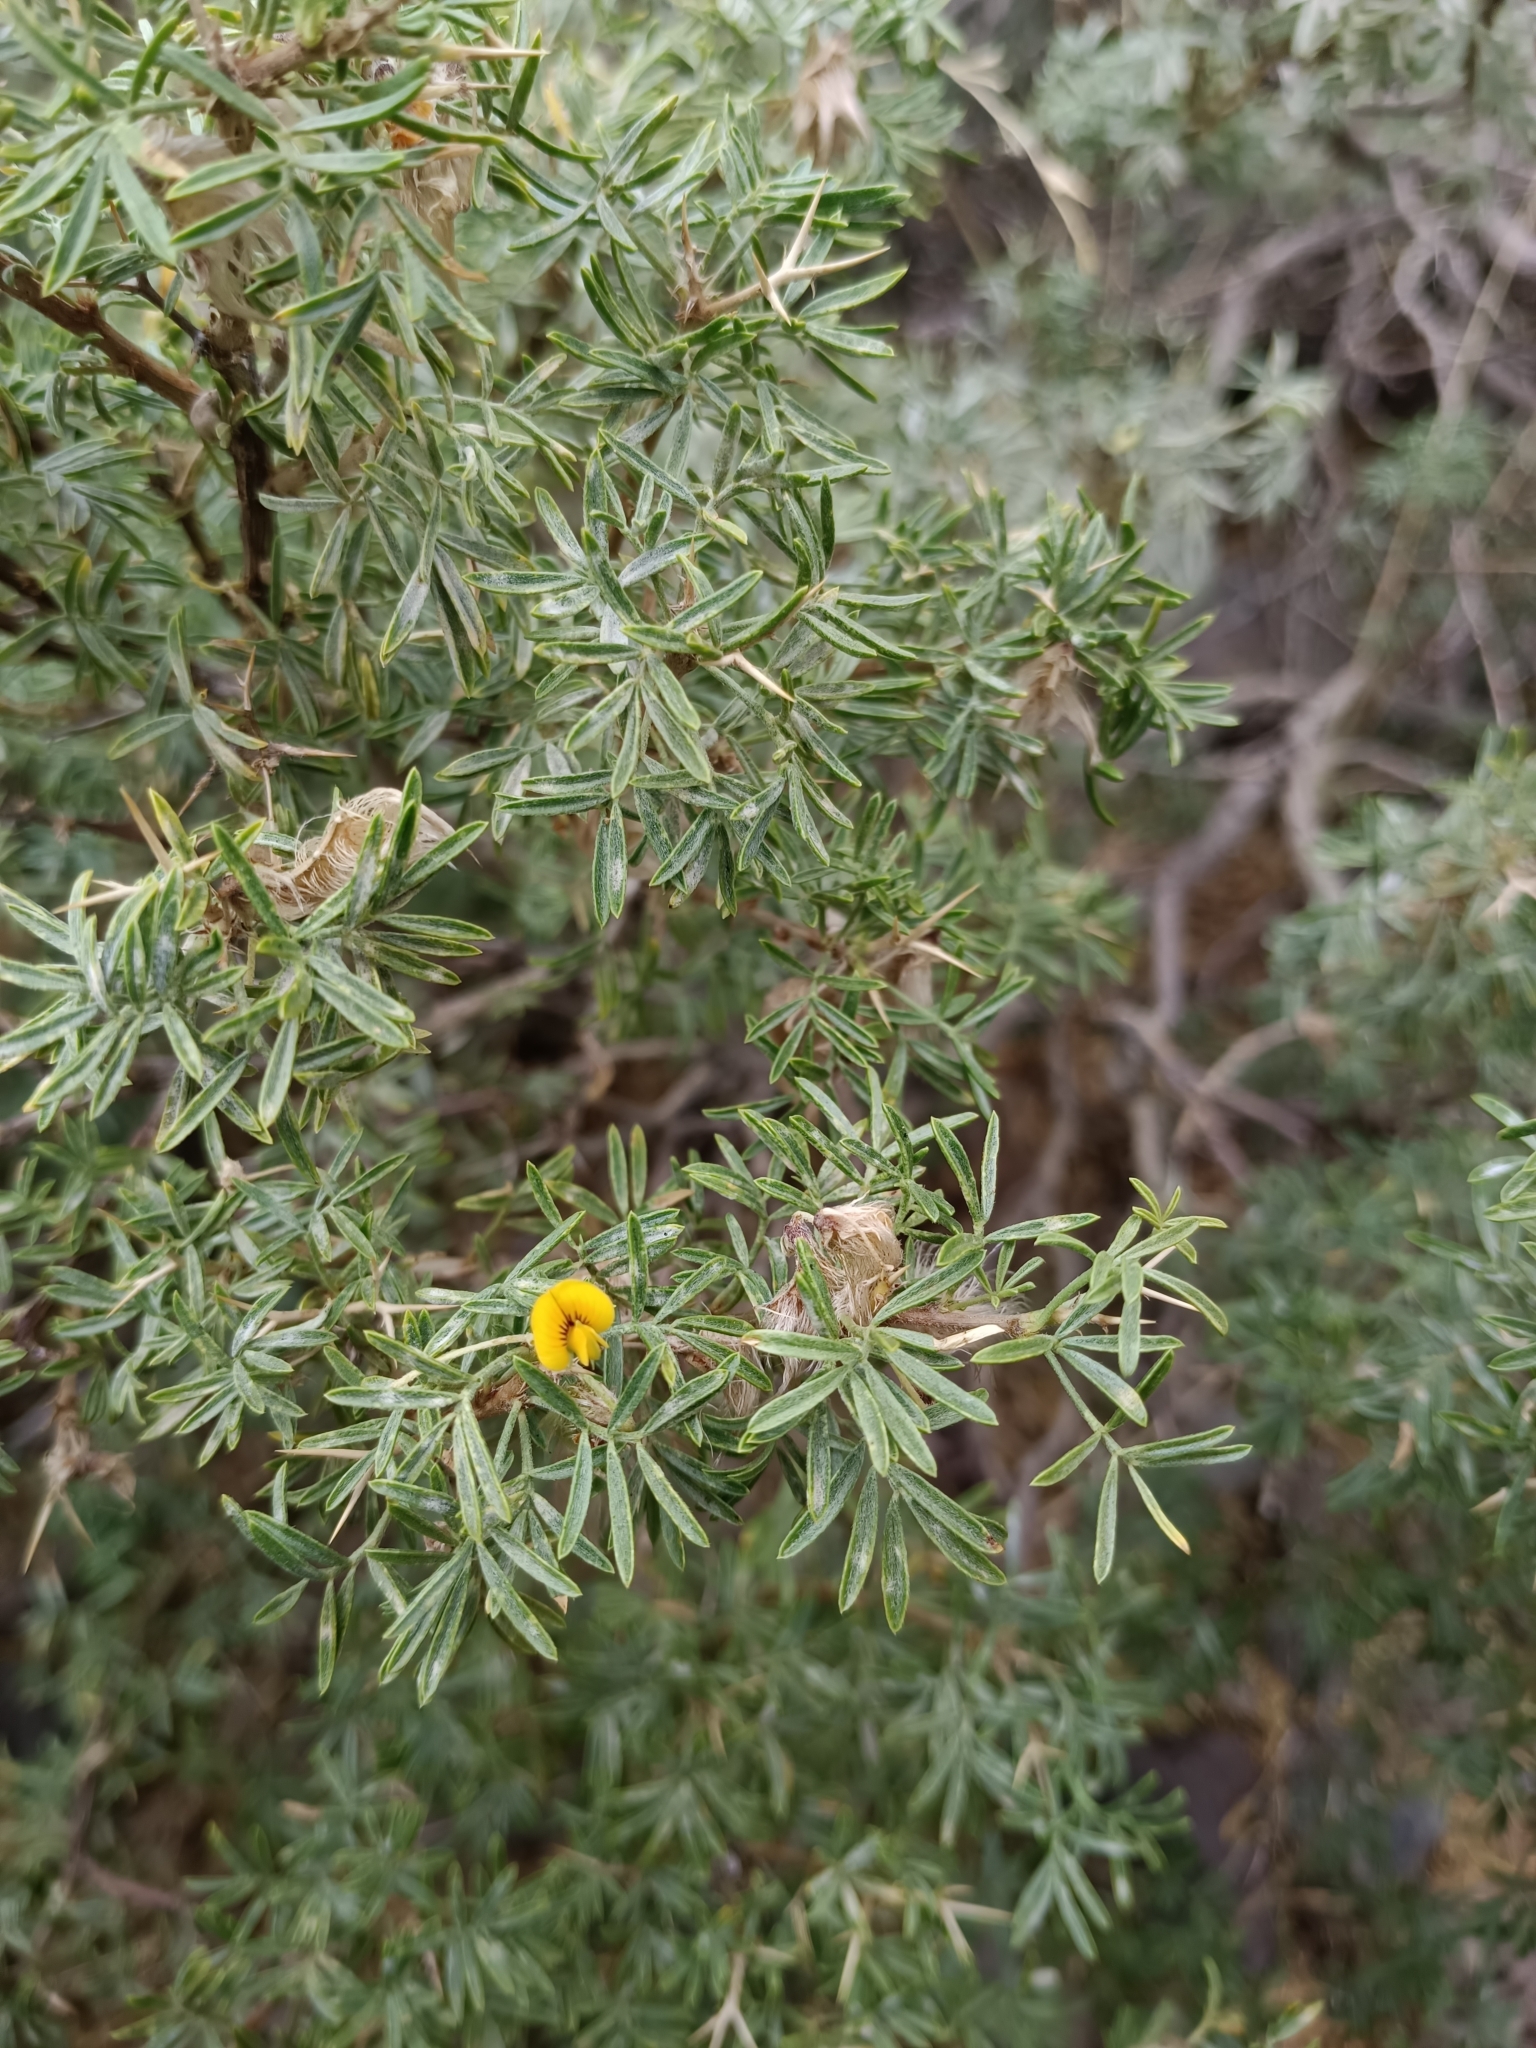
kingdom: Plantae
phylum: Tracheophyta
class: Magnoliopsida
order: Fabales
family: Fabaceae
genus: Adesmia
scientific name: Adesmia gracilis
